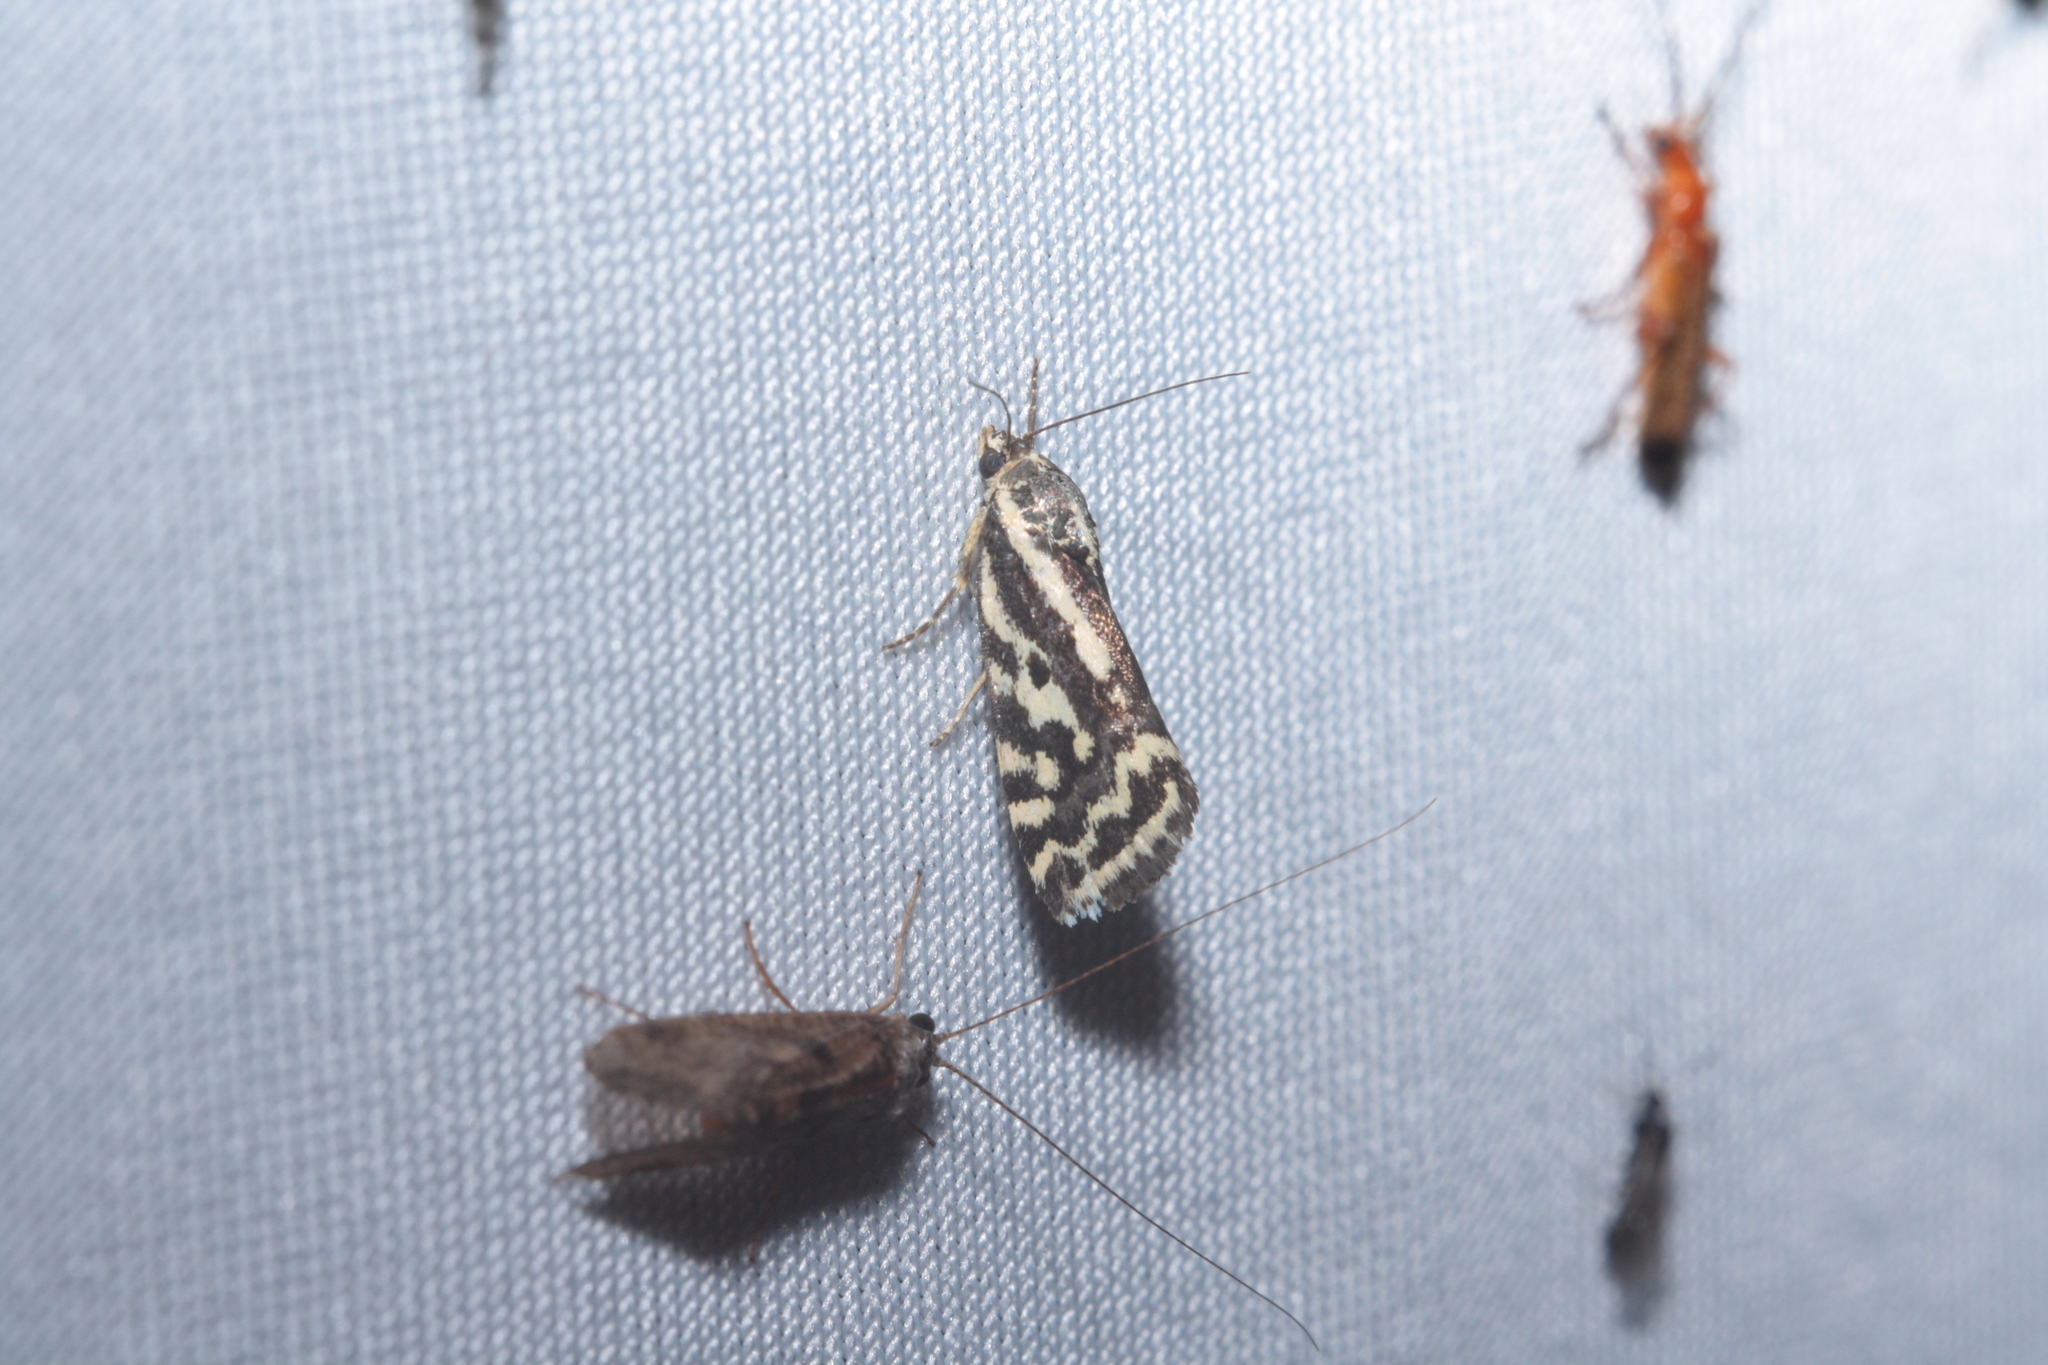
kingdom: Animalia
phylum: Arthropoda
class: Insecta
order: Lepidoptera
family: Noctuidae
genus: Acontia
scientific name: Acontia trabealis
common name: Spotted sulphur
